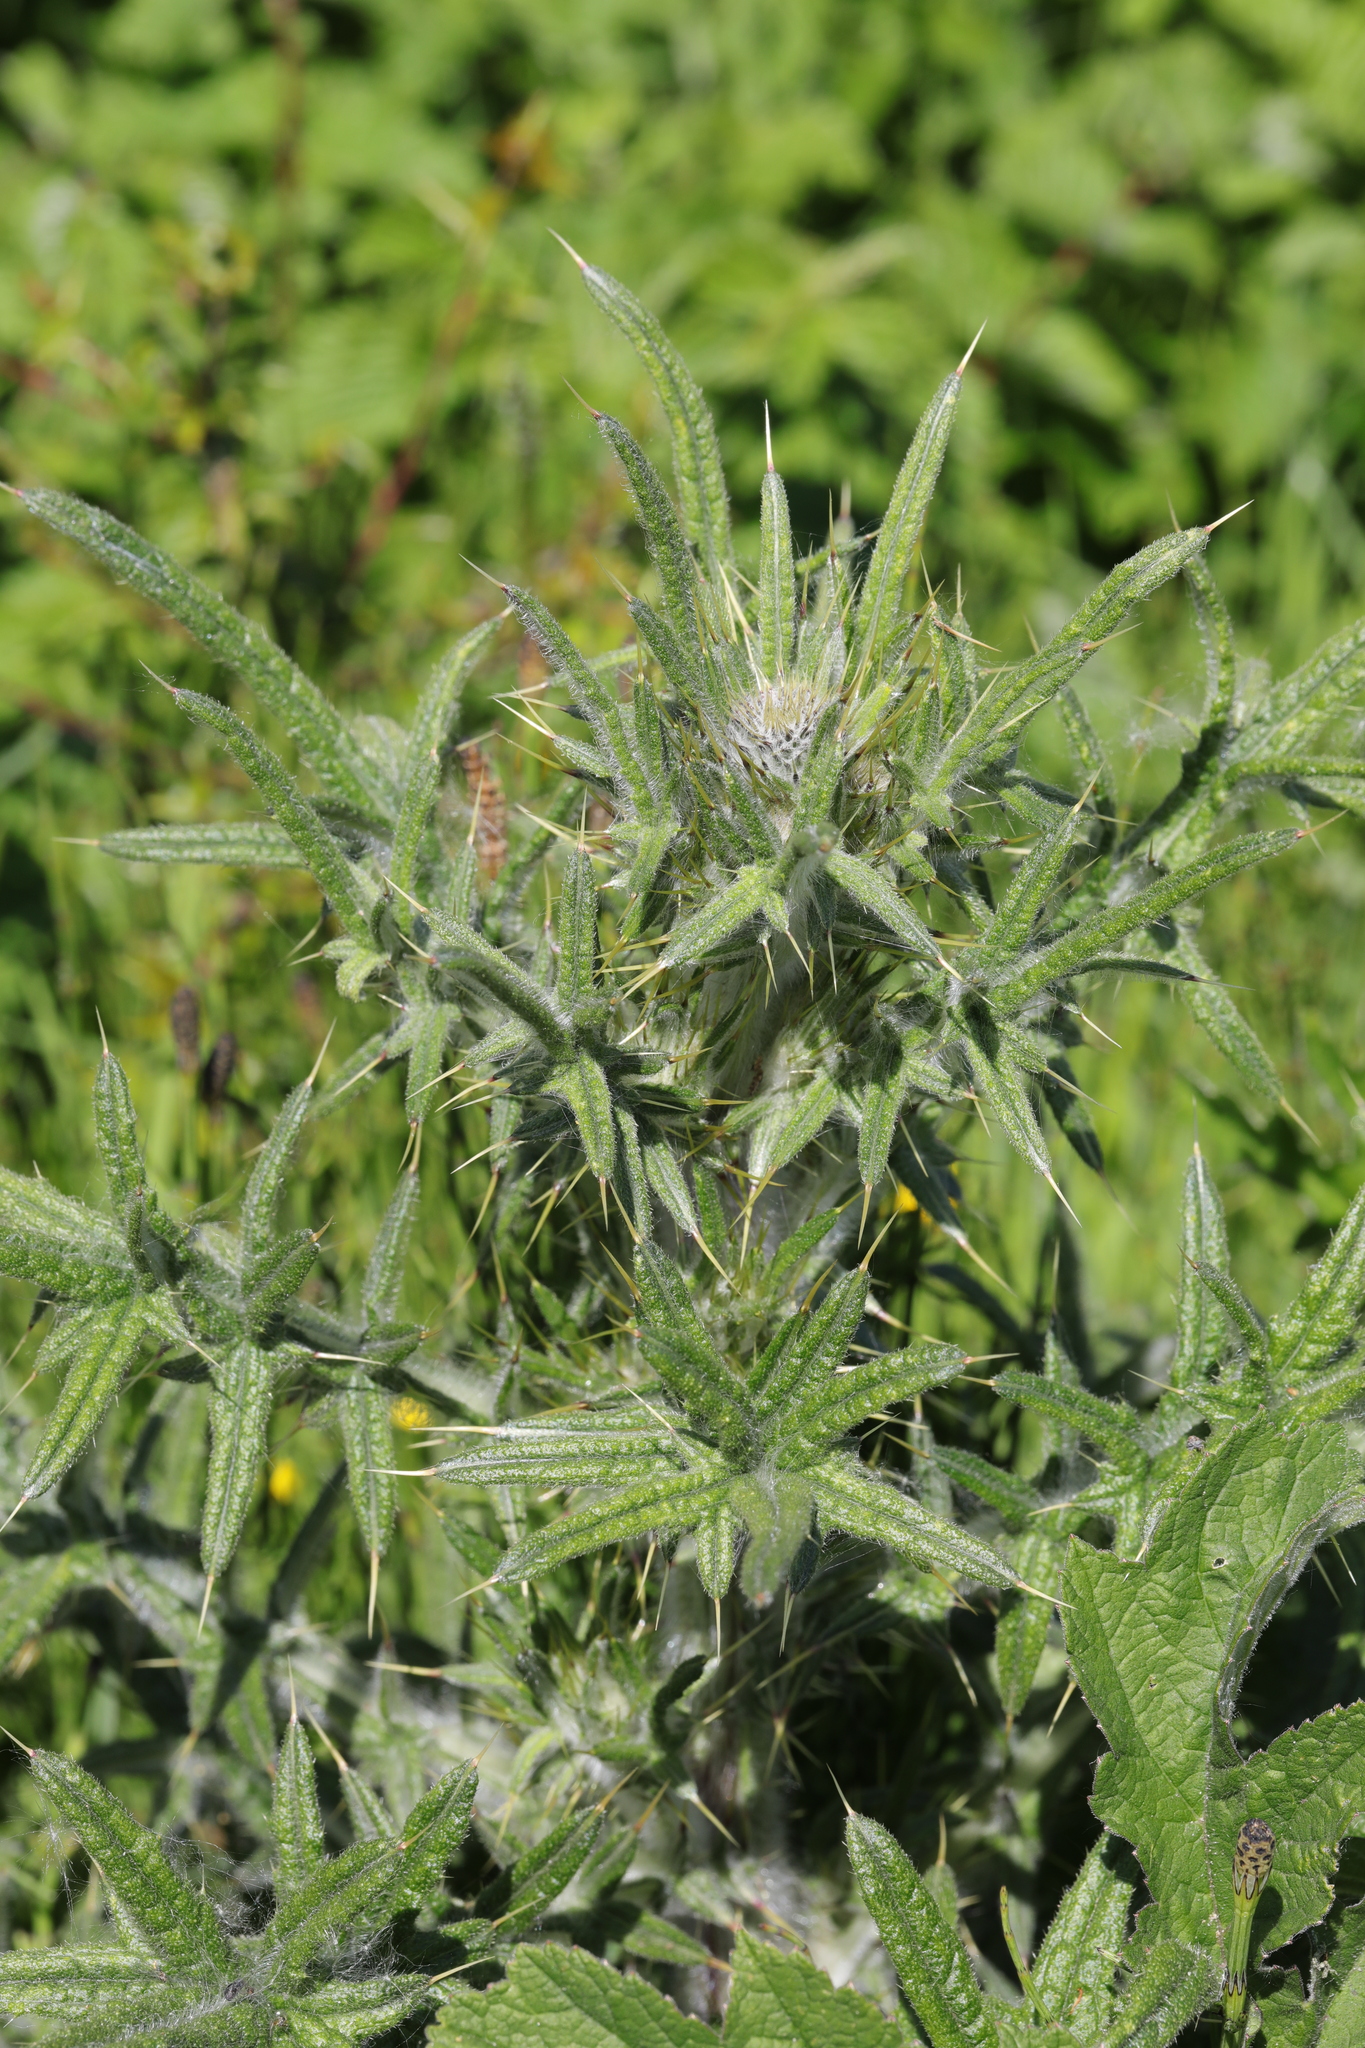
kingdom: Plantae
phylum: Tracheophyta
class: Magnoliopsida
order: Asterales
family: Asteraceae
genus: Cirsium
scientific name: Cirsium vulgare
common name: Bull thistle
